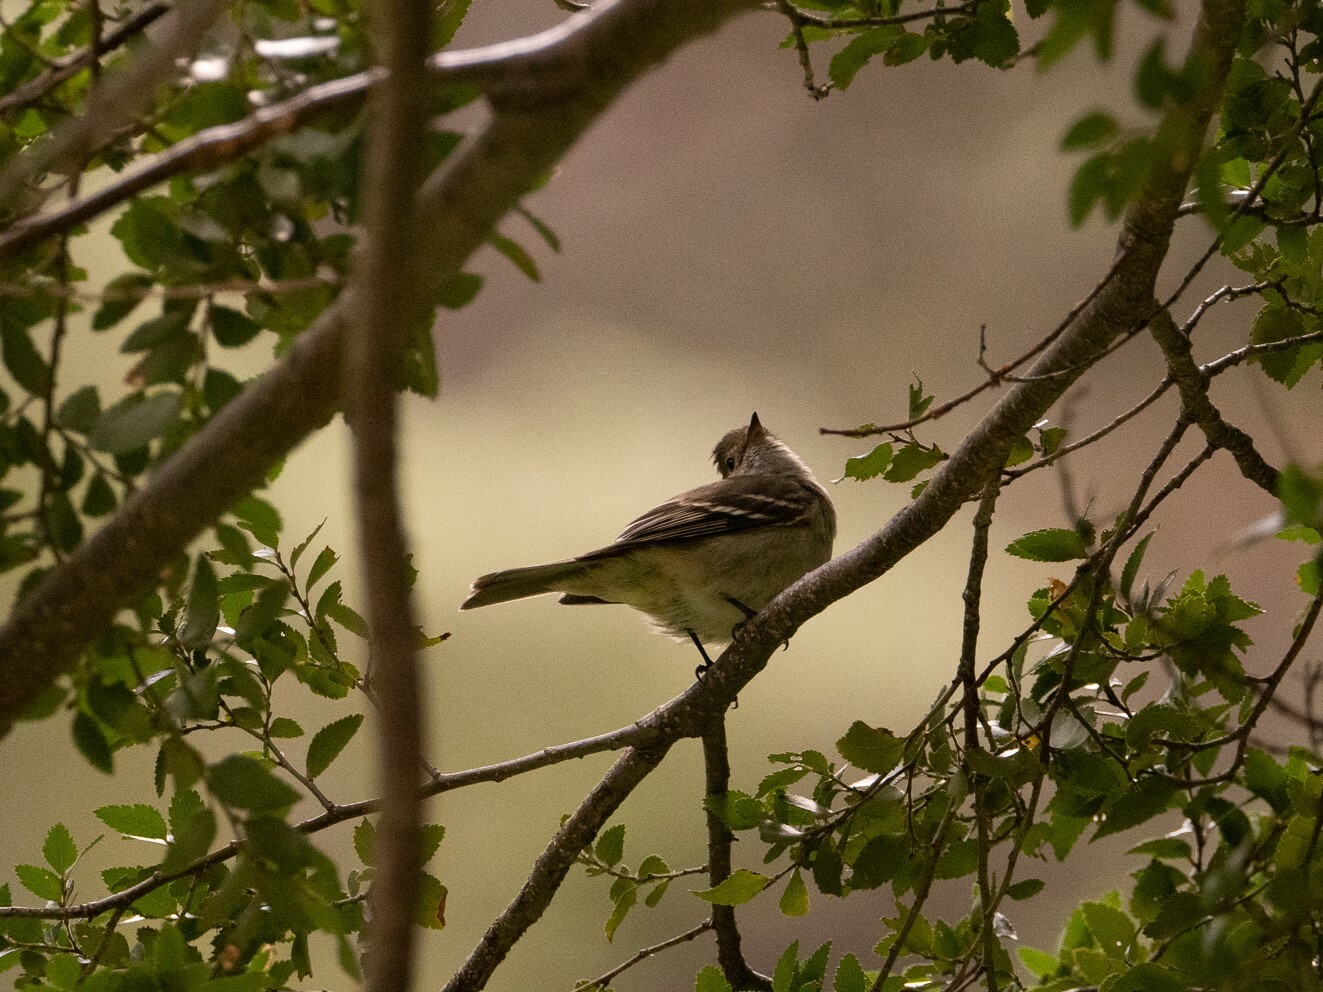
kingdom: Animalia
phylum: Chordata
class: Aves
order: Passeriformes
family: Tyrannidae
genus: Elaenia
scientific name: Elaenia albiceps
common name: White-crested elaenia
